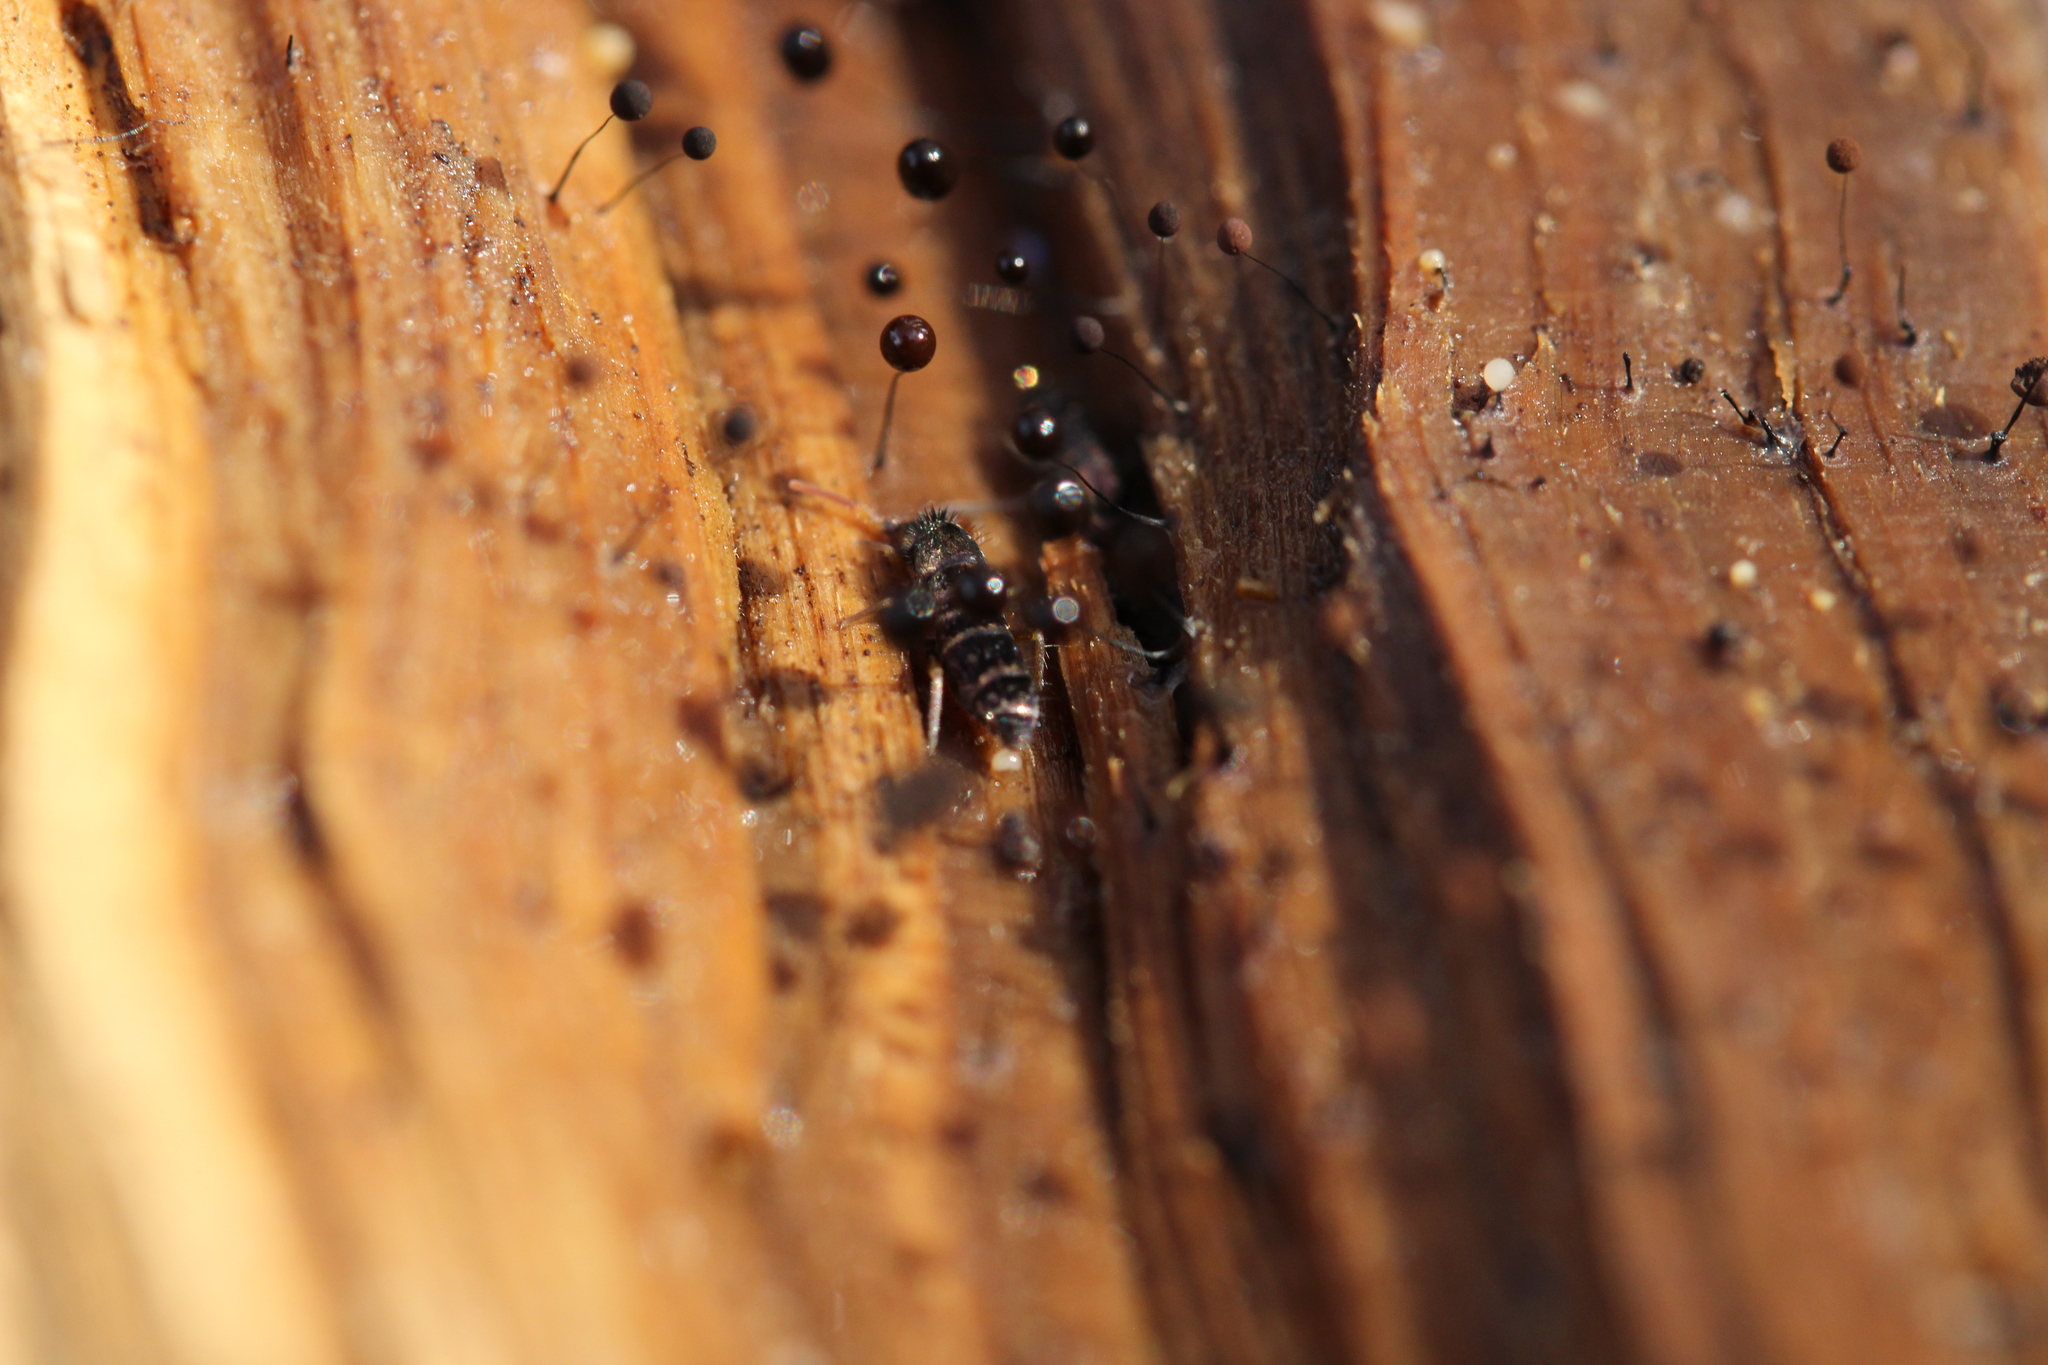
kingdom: Protozoa
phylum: Mycetozoa
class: Myxomycetes
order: Stemonitidales
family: Stemonitidaceae
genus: Comatricha
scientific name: Comatricha
